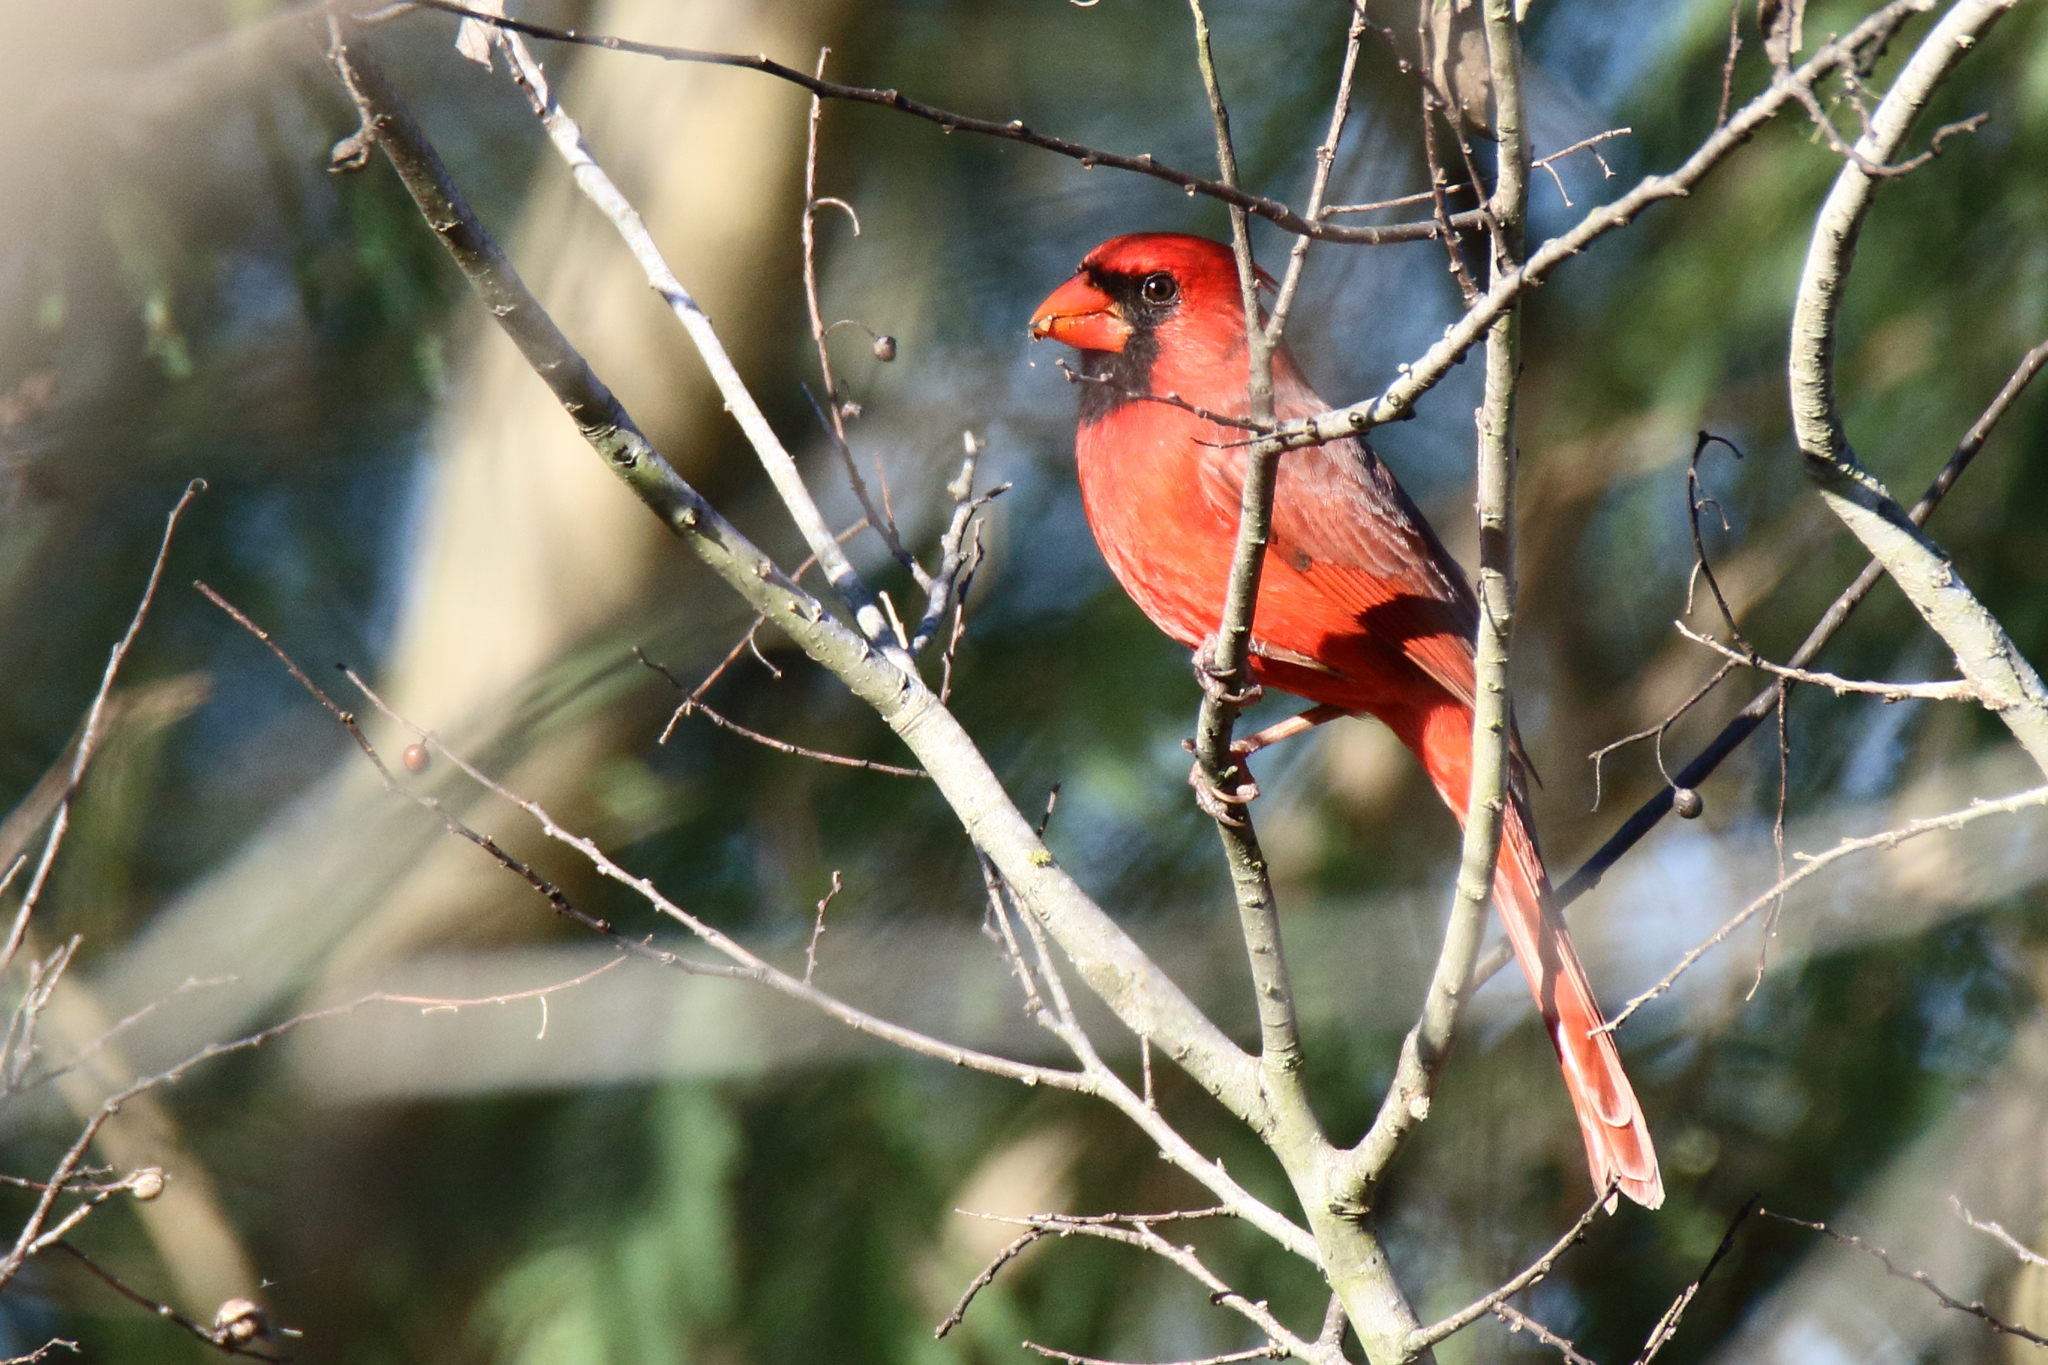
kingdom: Animalia
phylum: Chordata
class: Aves
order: Passeriformes
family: Cardinalidae
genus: Cardinalis
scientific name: Cardinalis cardinalis
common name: Northern cardinal
